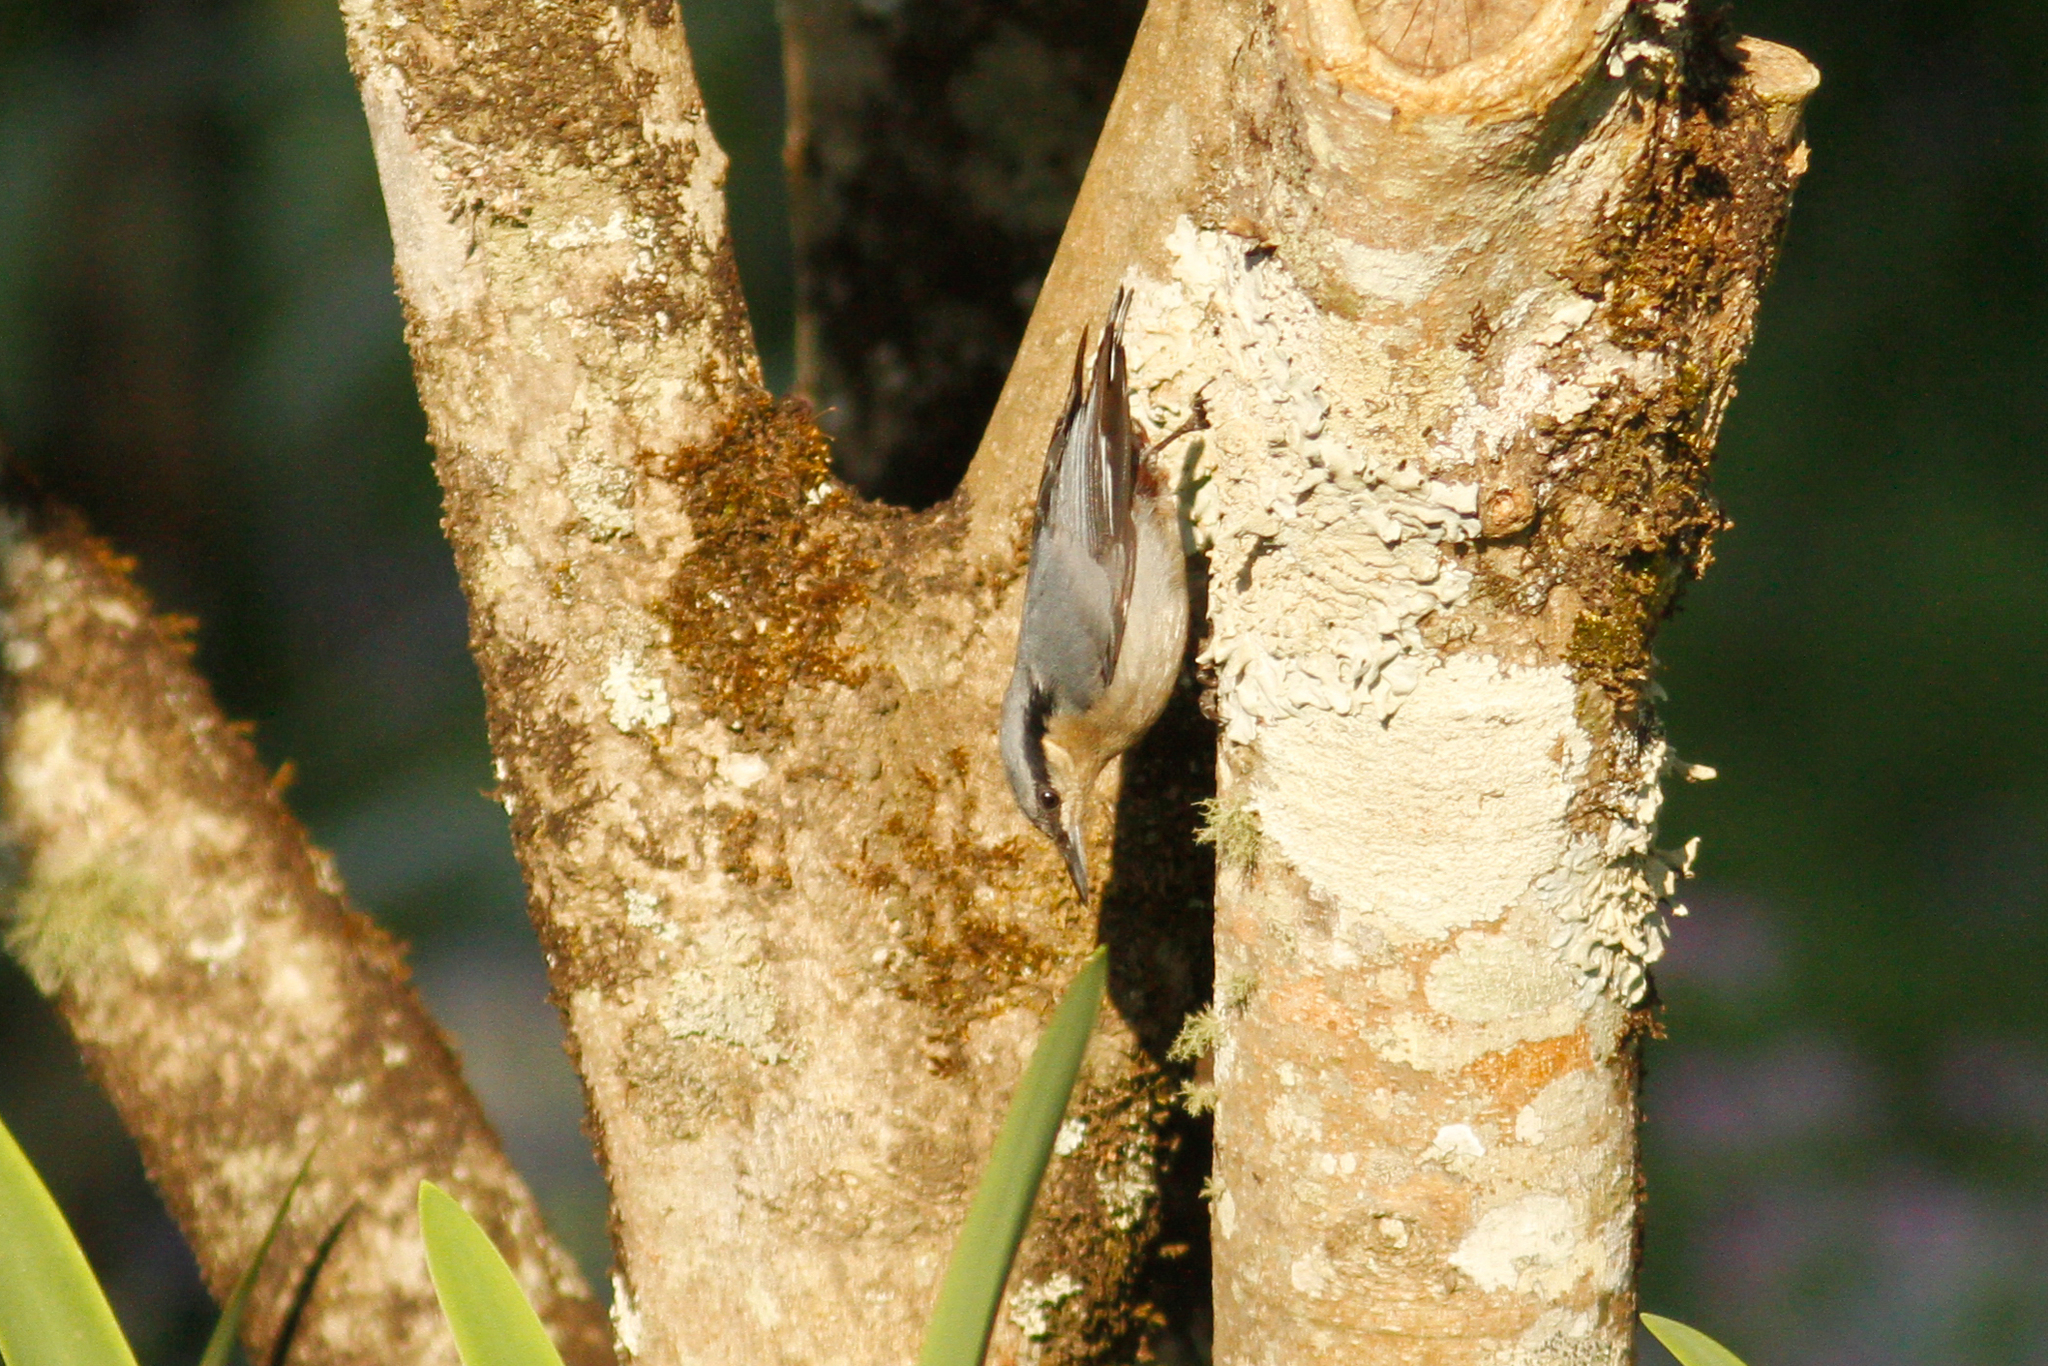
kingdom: Animalia
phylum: Chordata
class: Aves
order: Passeriformes
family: Sittidae
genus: Sitta
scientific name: Sitta nagaensis
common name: Chestnut-vented nuthatch
